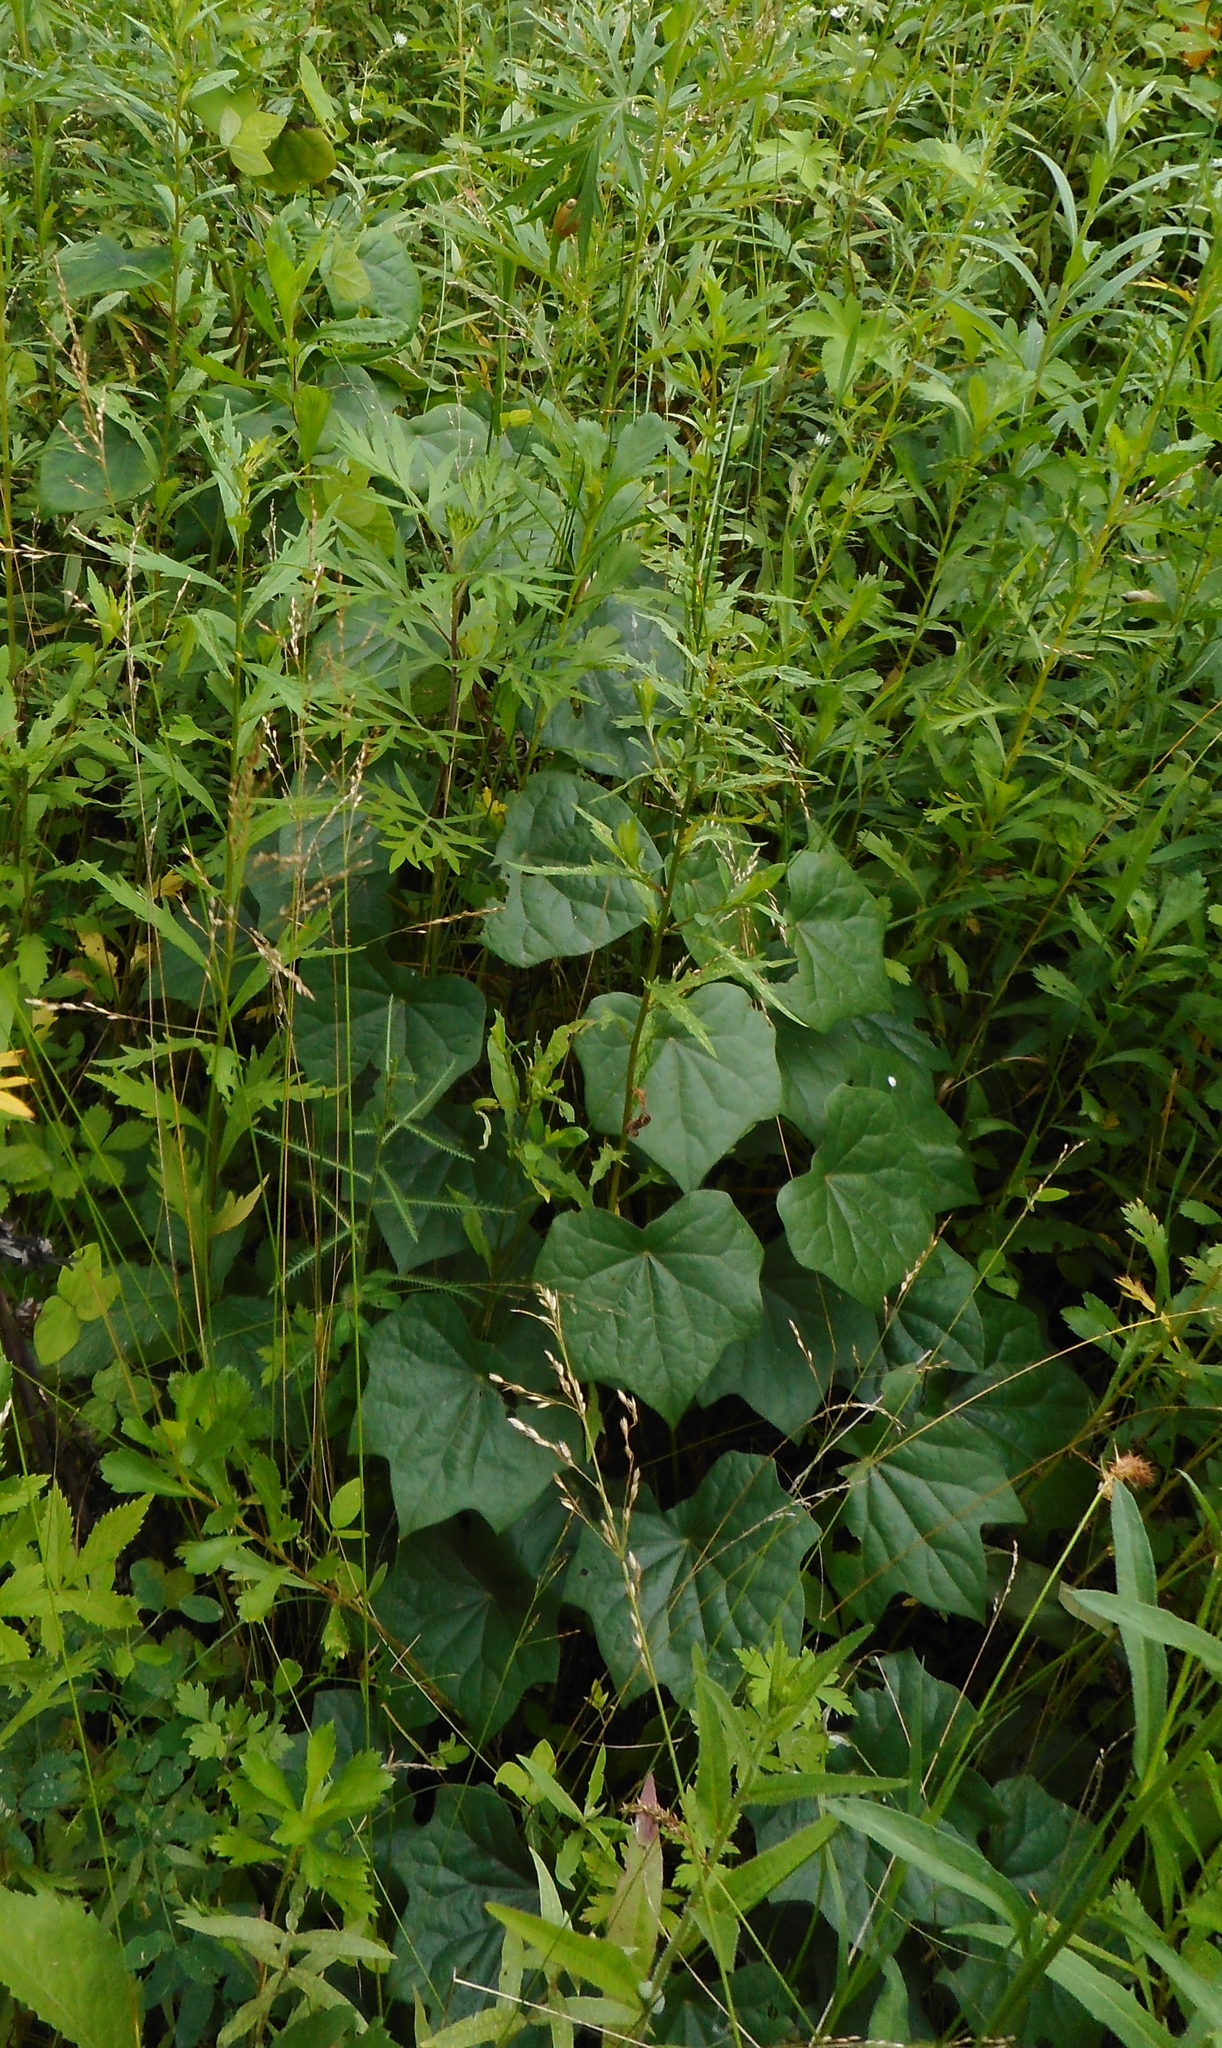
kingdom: Plantae
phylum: Tracheophyta
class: Magnoliopsida
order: Ranunculales
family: Menispermaceae
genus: Menispermum
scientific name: Menispermum dauricum
